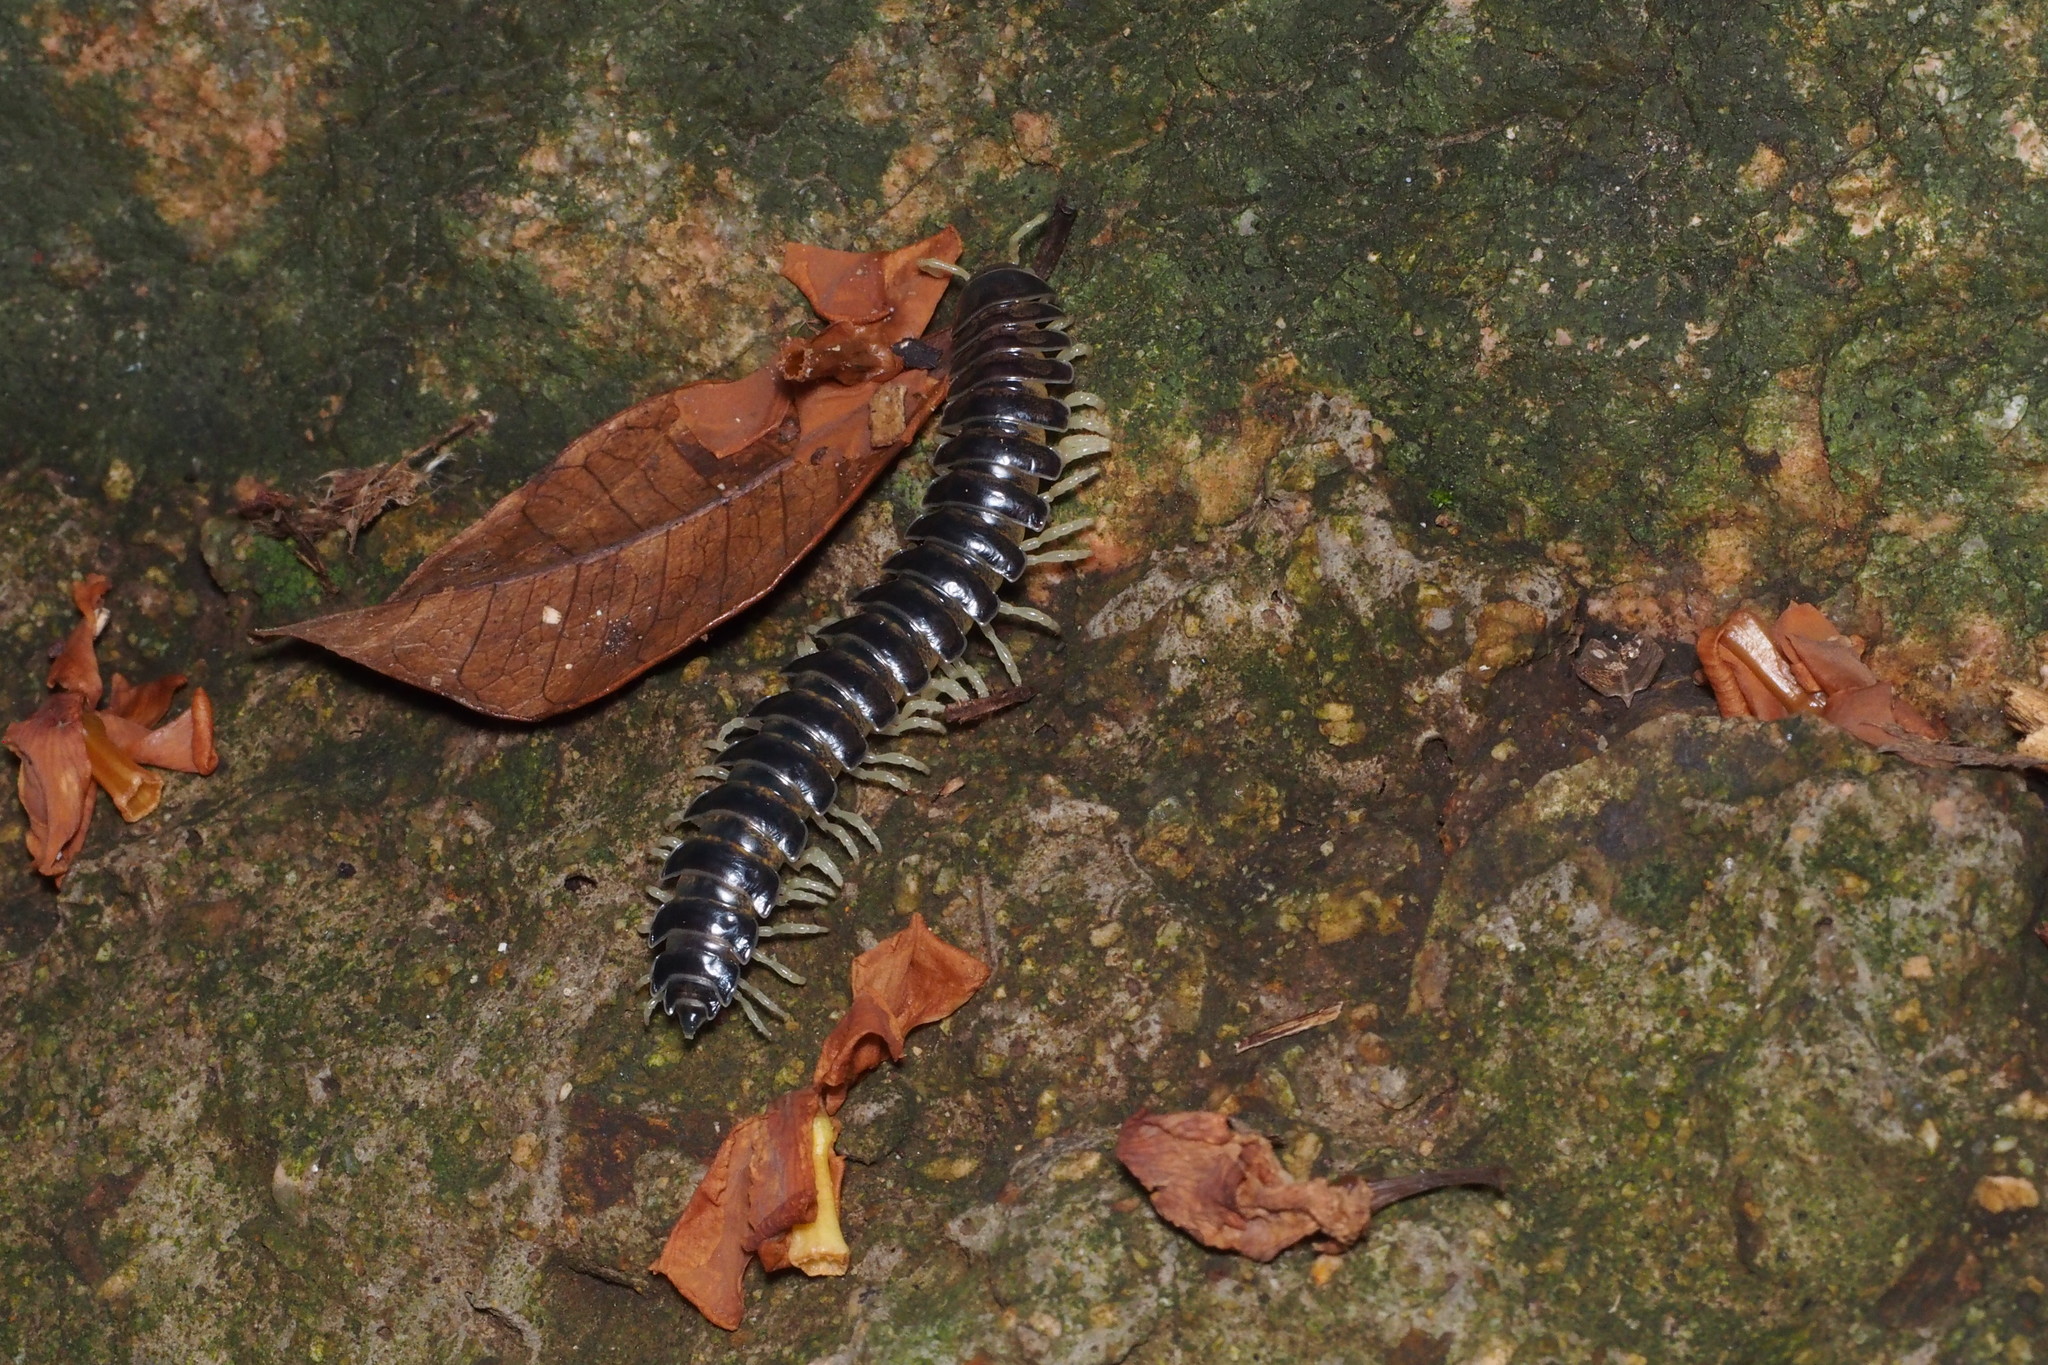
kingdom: Animalia
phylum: Arthropoda
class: Diplopoda
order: Polydesmida
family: Xystodesmidae
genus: Parafontaria
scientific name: Parafontaria tonominea
